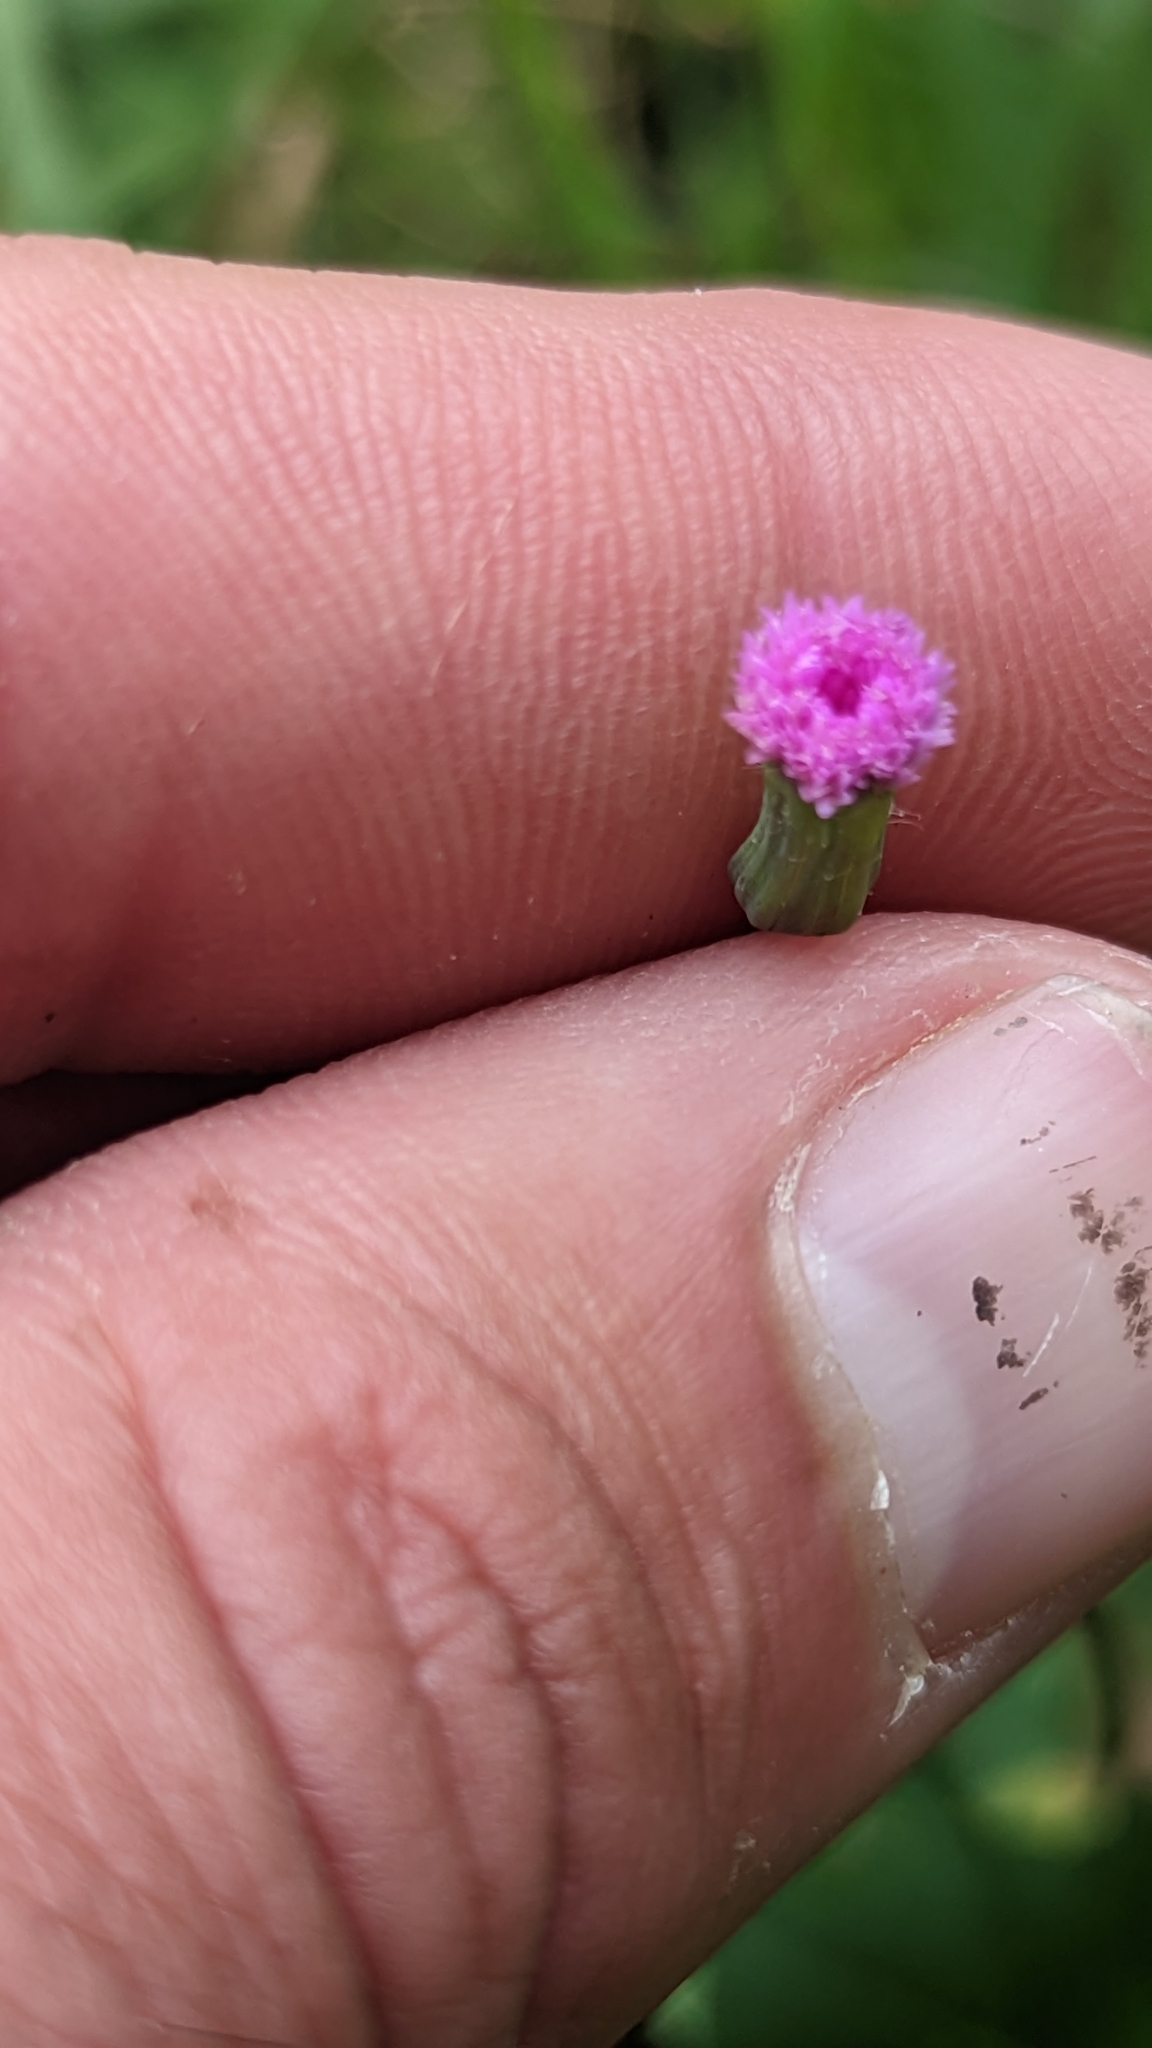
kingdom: Plantae
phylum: Tracheophyta
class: Magnoliopsida
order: Asterales
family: Asteraceae
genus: Emilia
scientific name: Emilia sonchifolia
